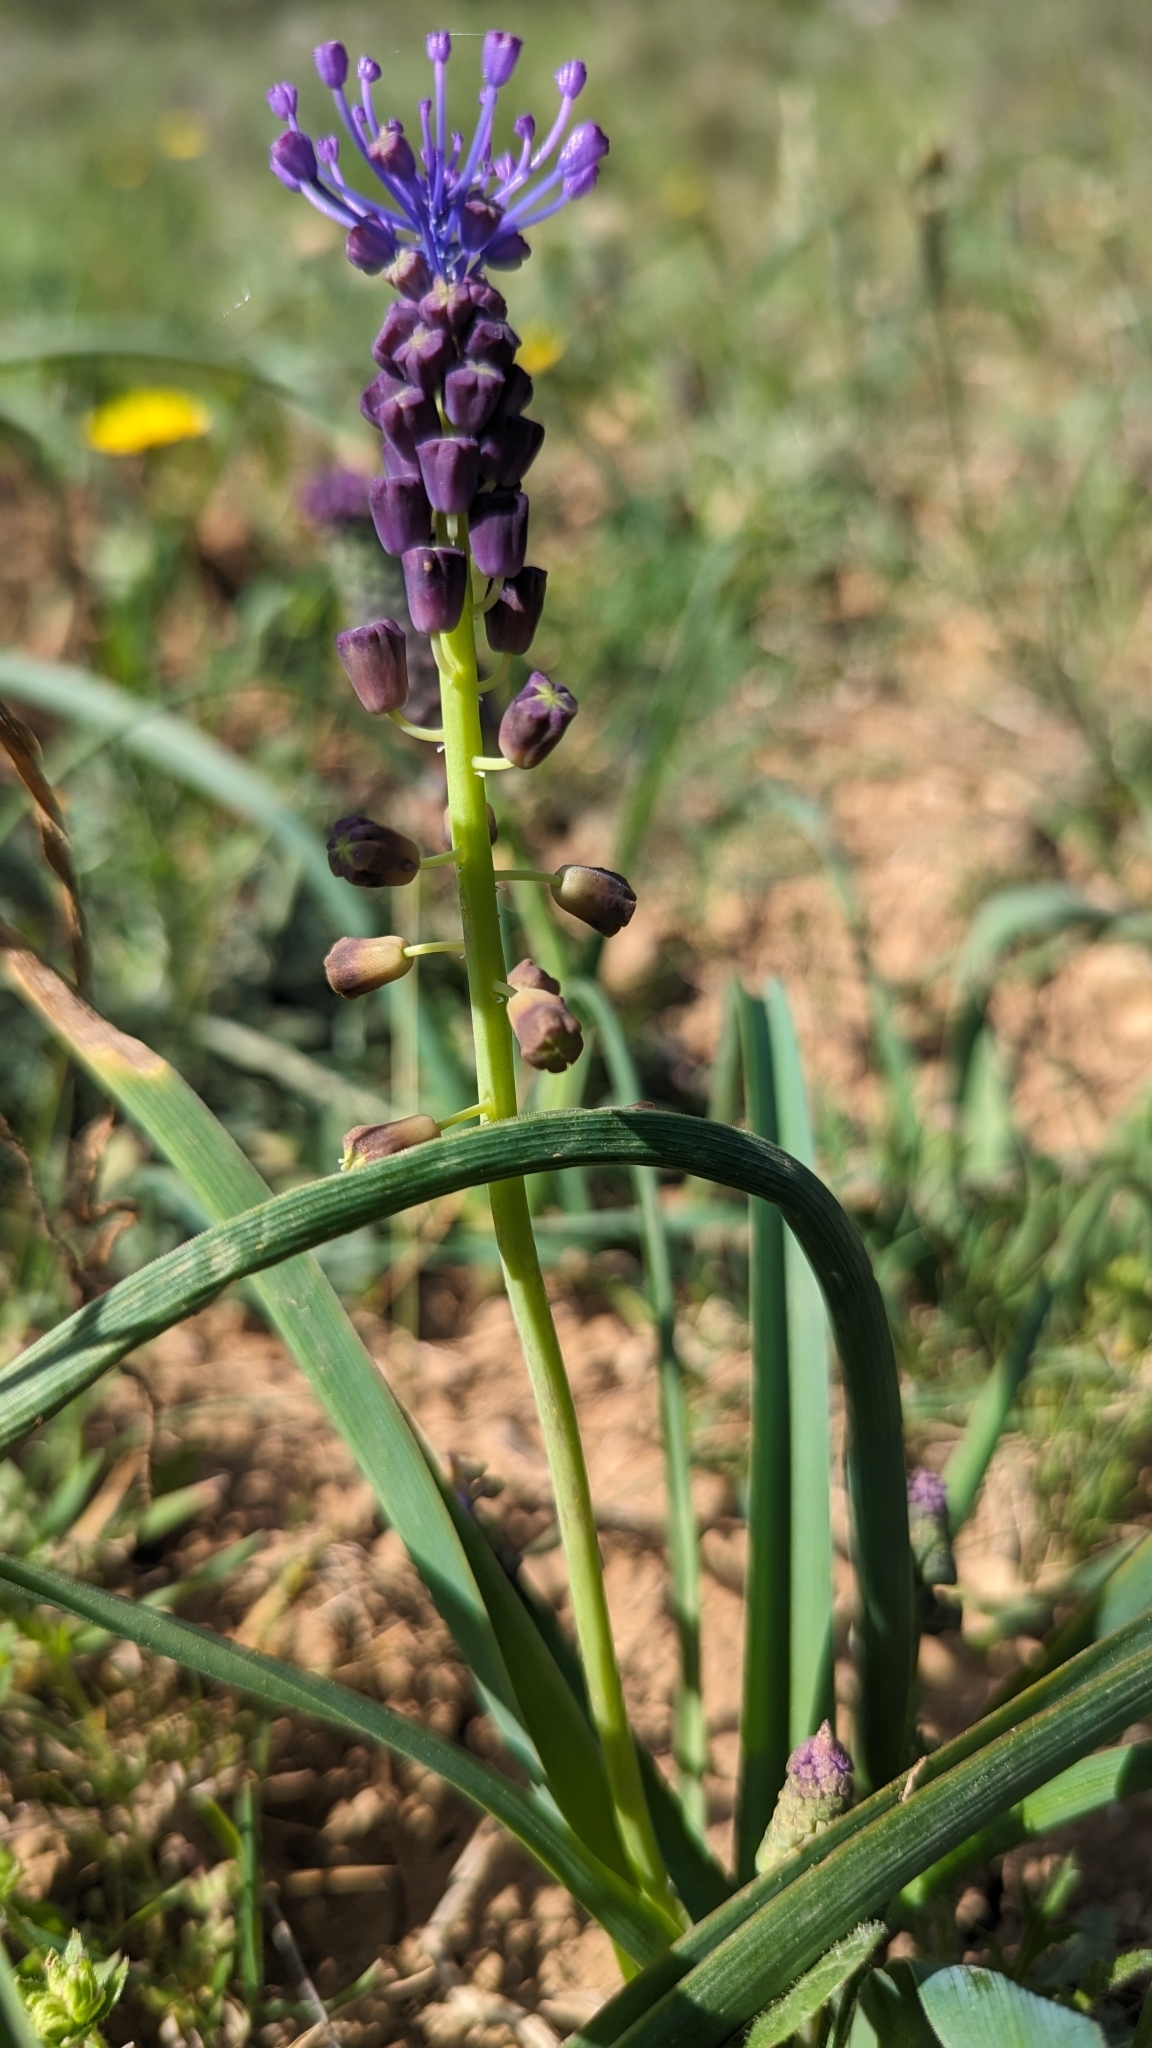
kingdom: Plantae
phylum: Tracheophyta
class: Liliopsida
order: Asparagales
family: Asparagaceae
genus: Muscari
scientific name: Muscari comosum
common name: Tassel hyacinth
